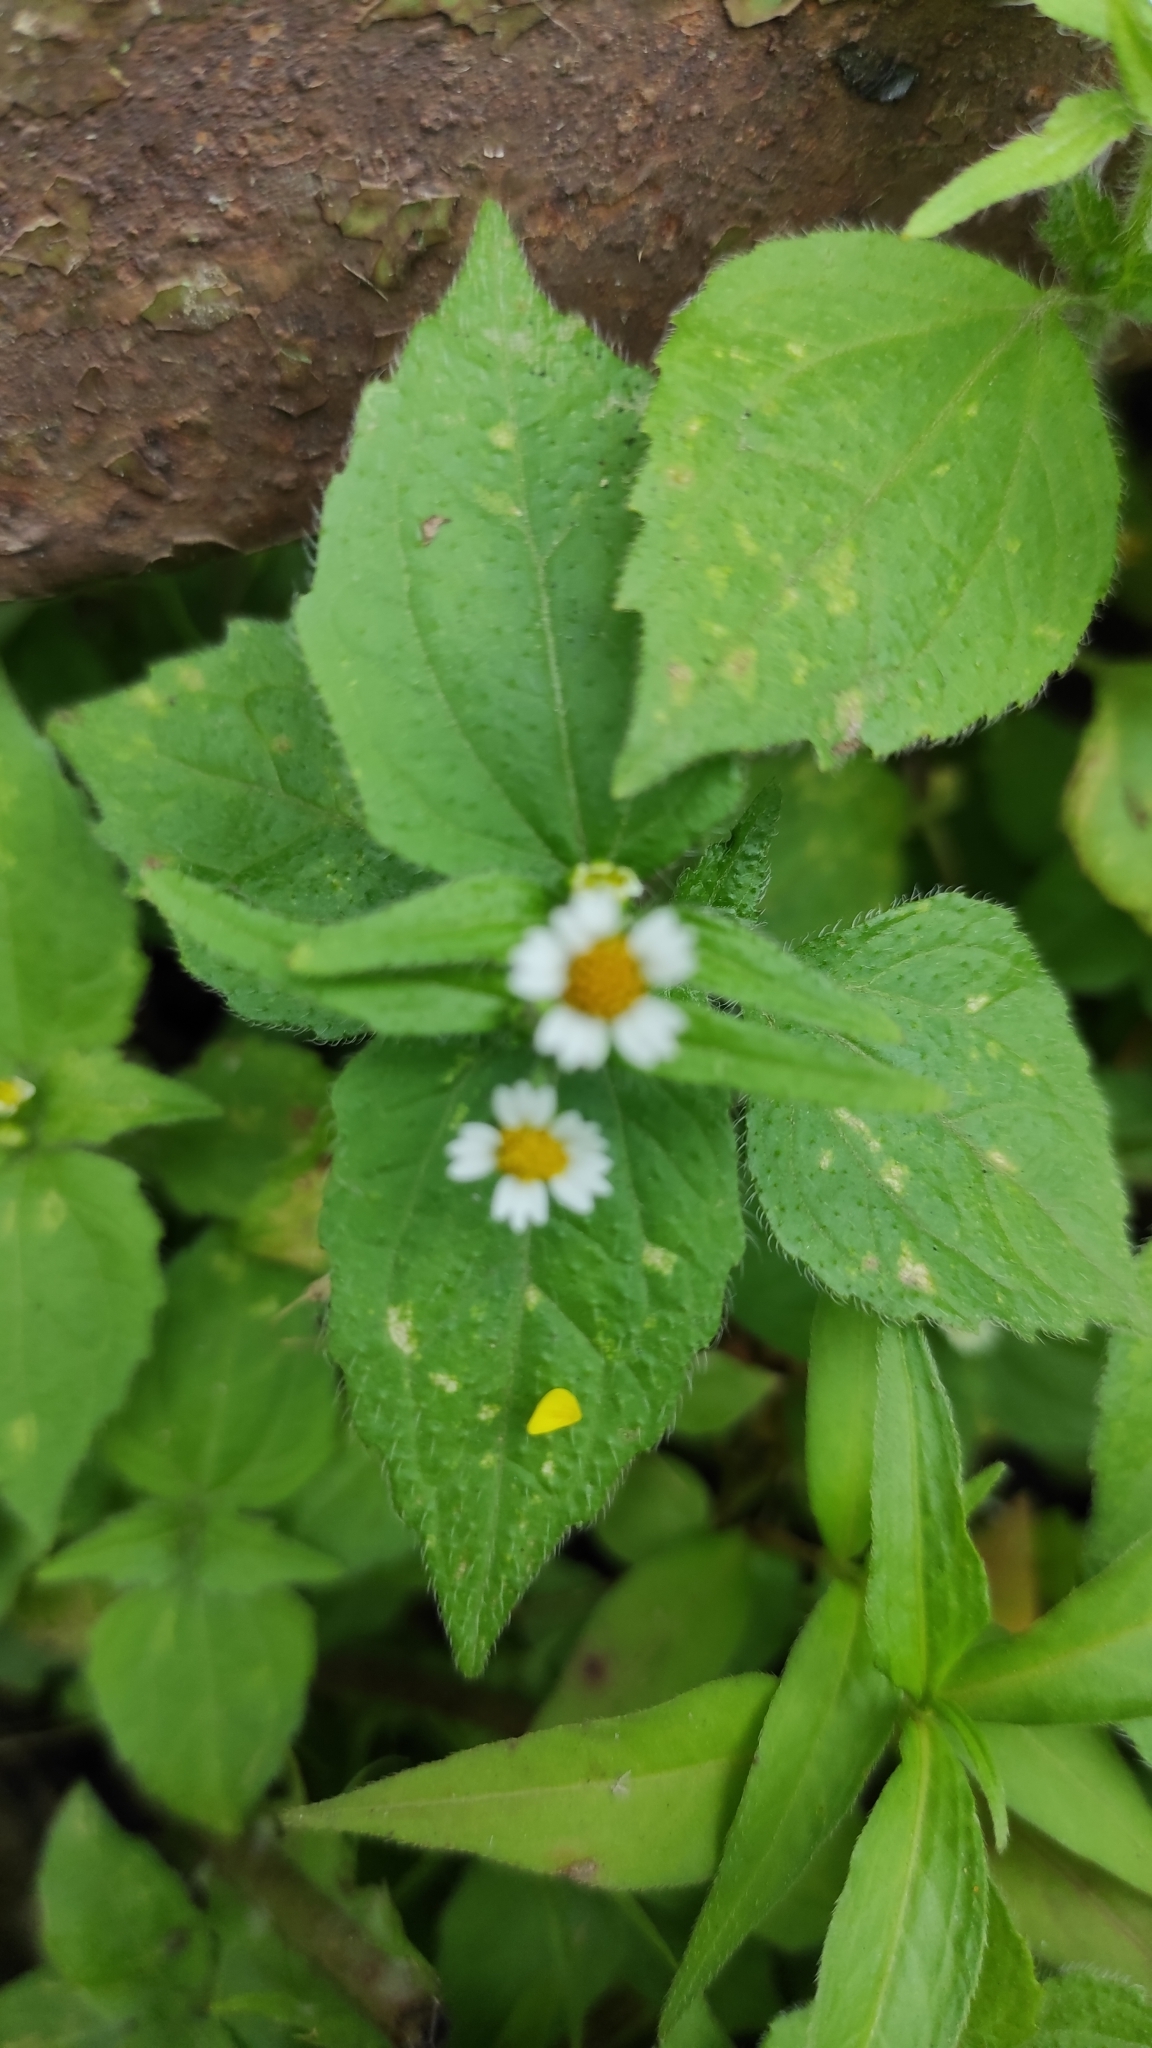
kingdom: Plantae
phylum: Tracheophyta
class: Magnoliopsida
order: Asterales
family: Asteraceae
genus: Galinsoga
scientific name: Galinsoga quadriradiata
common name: Shaggy soldier
